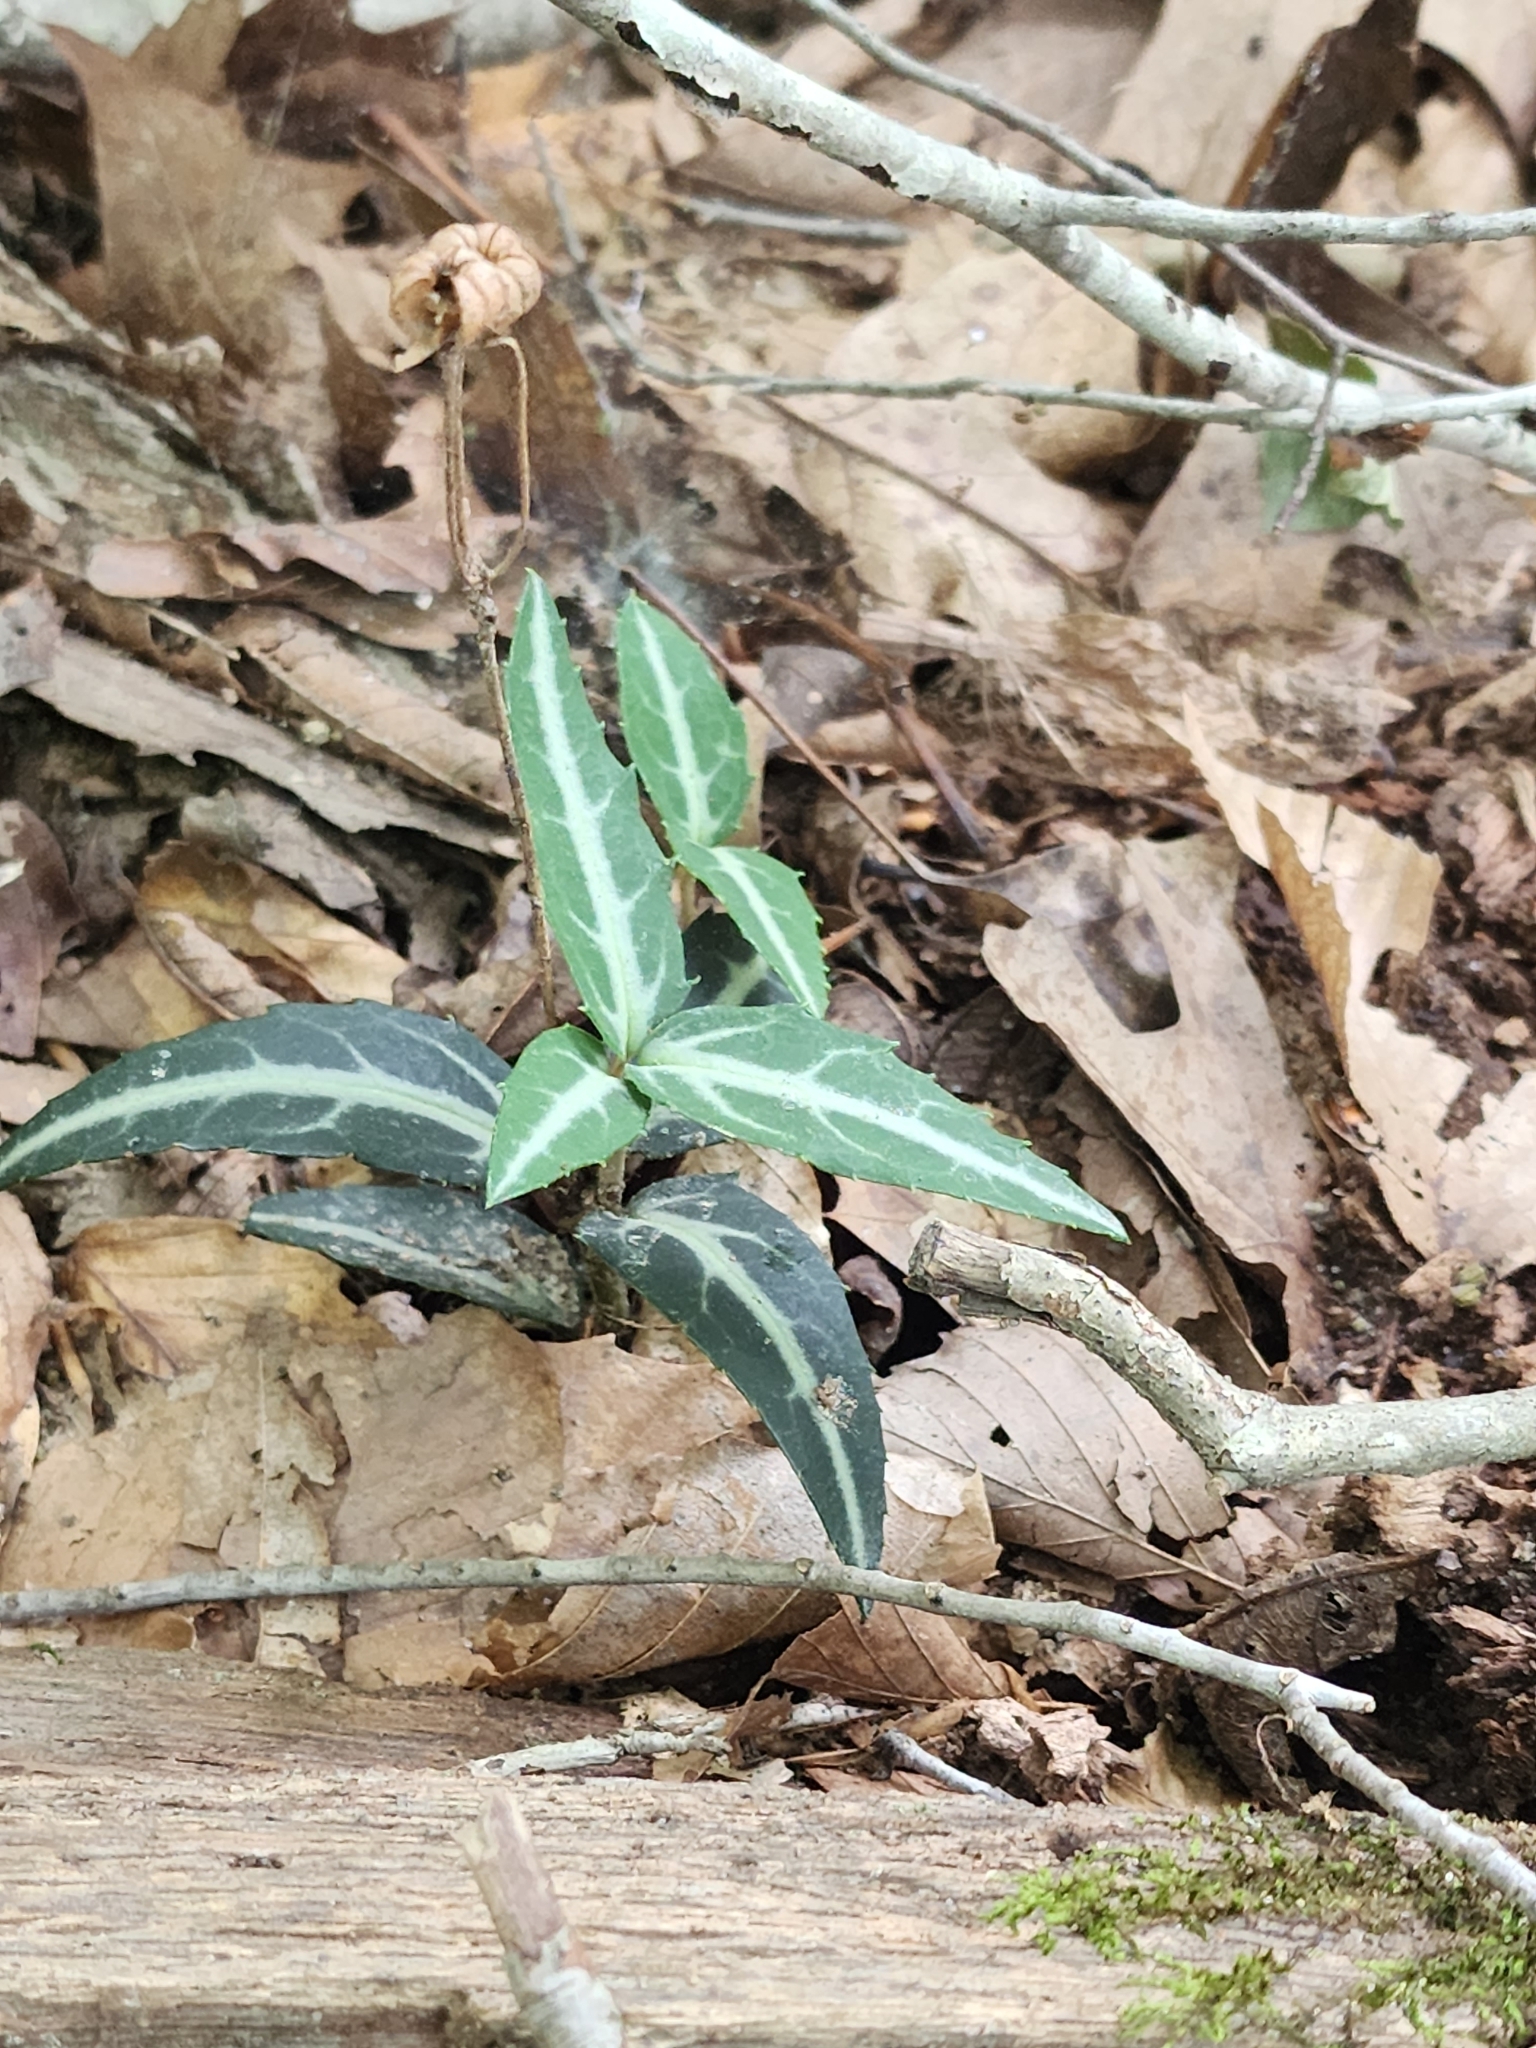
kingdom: Plantae
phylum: Tracheophyta
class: Magnoliopsida
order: Ericales
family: Ericaceae
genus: Chimaphila
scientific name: Chimaphila maculata
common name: Spotted pipsissewa
